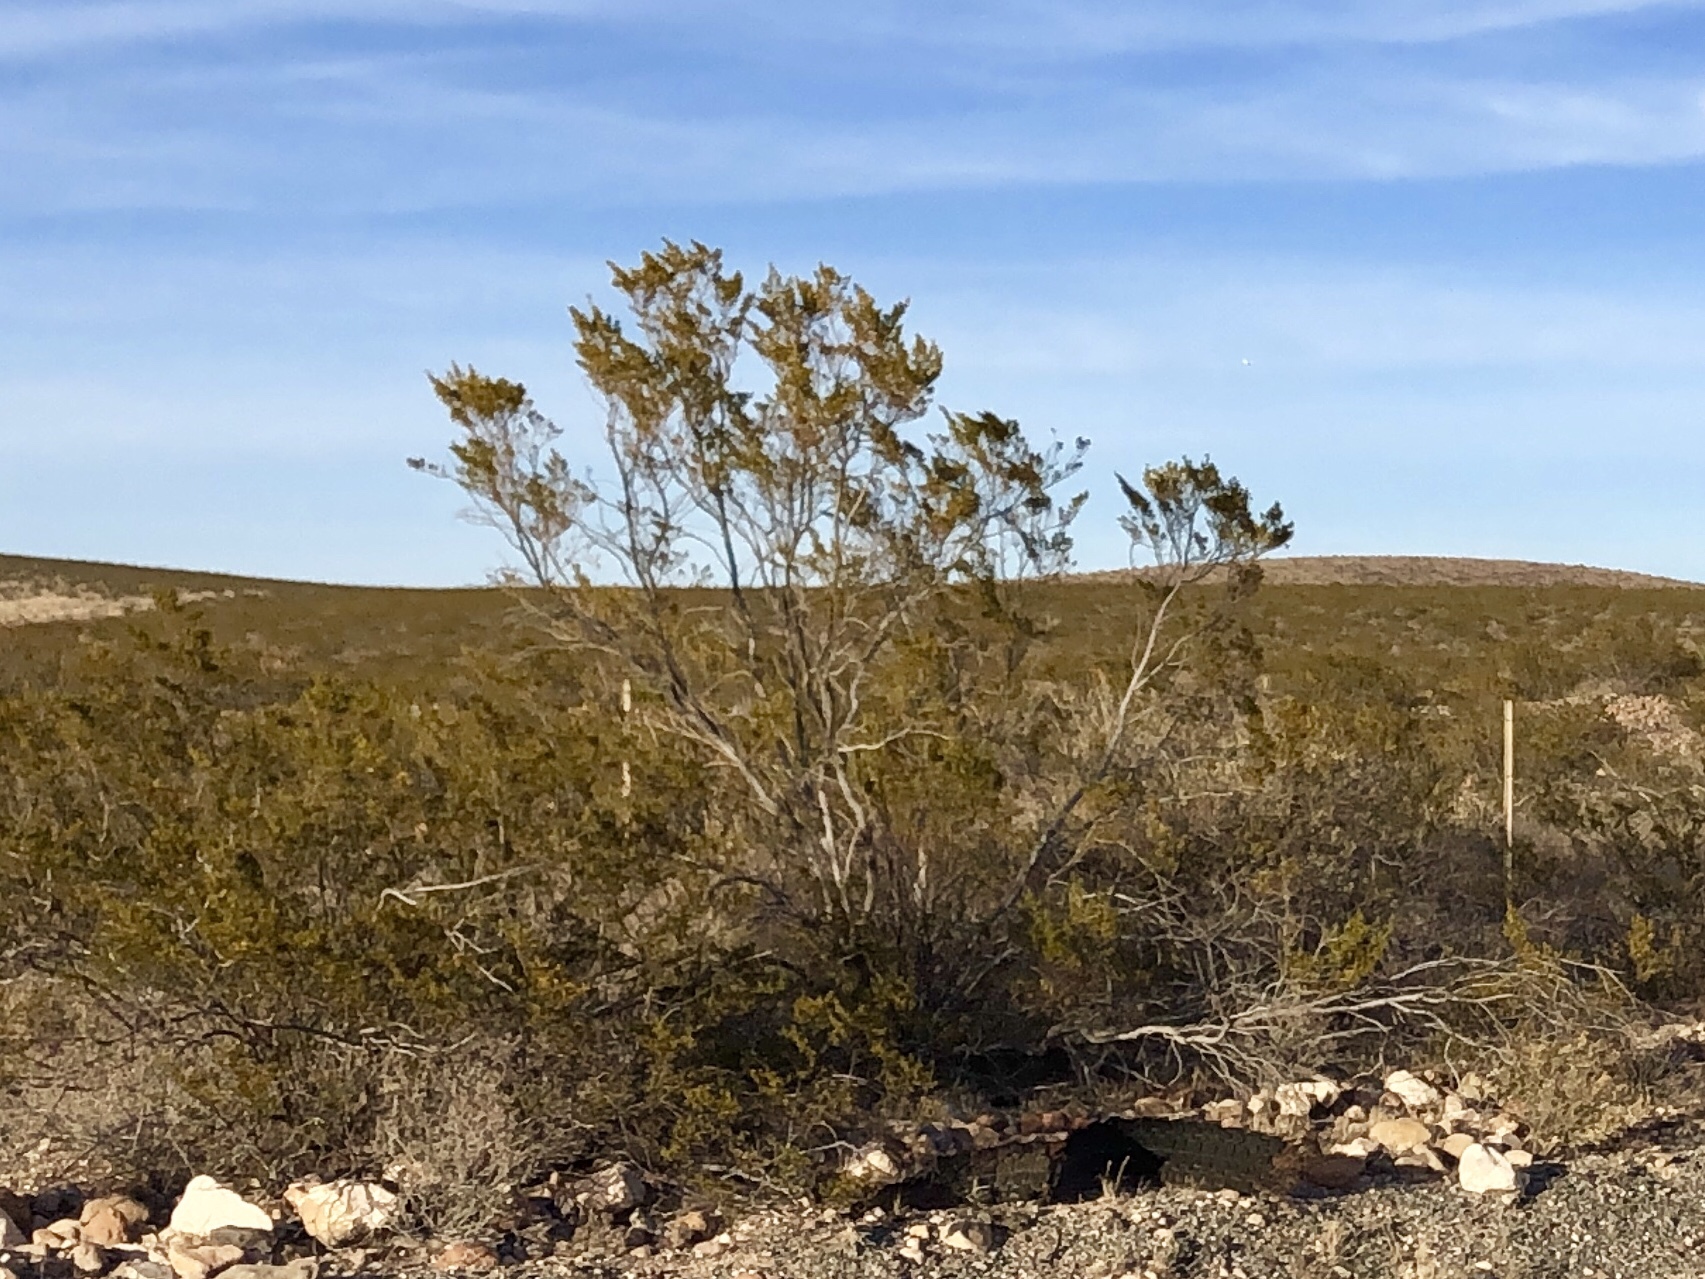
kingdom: Plantae
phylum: Tracheophyta
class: Magnoliopsida
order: Zygophyllales
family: Zygophyllaceae
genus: Larrea
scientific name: Larrea tridentata
